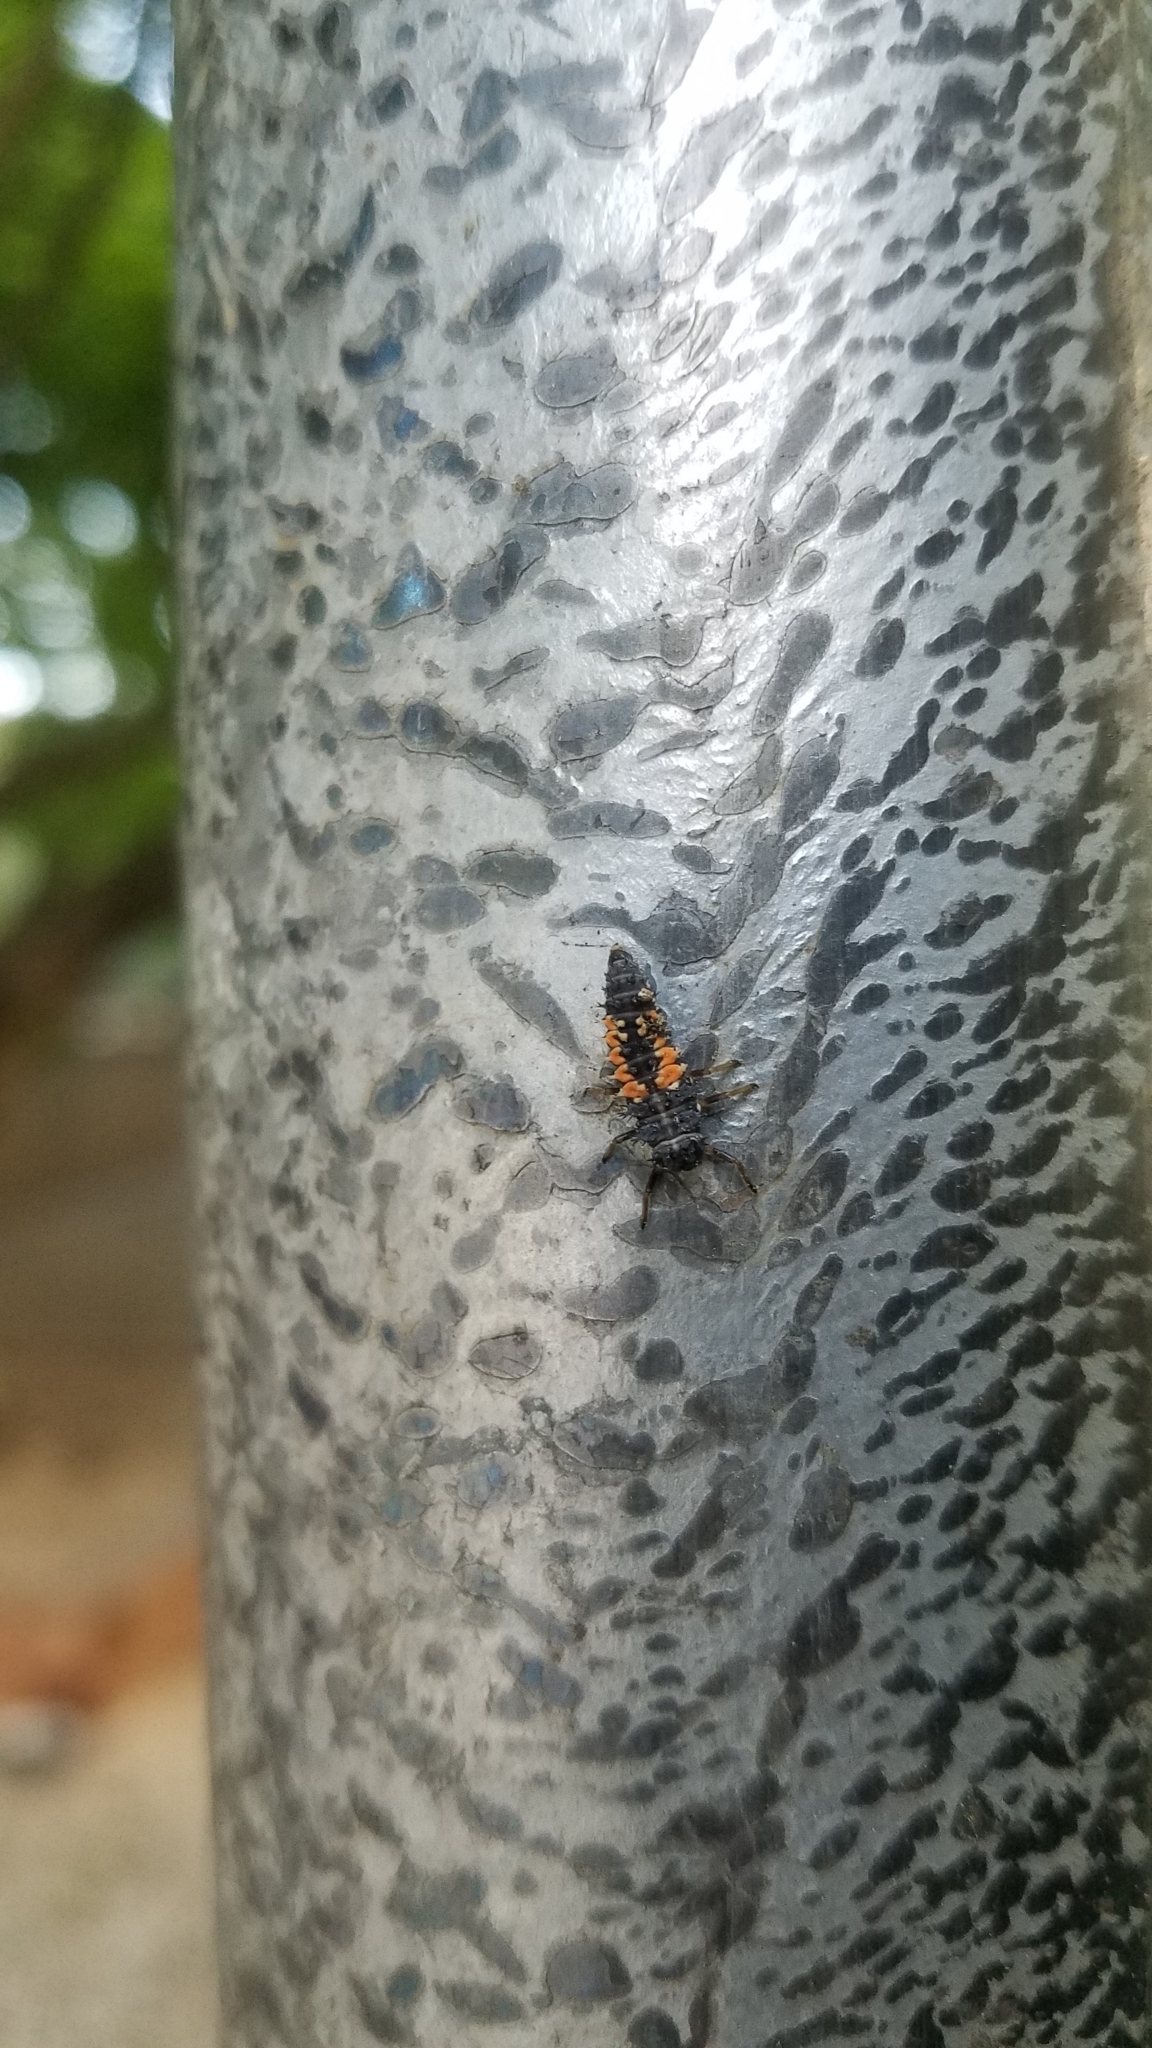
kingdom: Animalia
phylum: Arthropoda
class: Insecta
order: Coleoptera
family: Coccinellidae
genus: Harmonia
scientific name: Harmonia axyridis
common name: Harlequin ladybird
